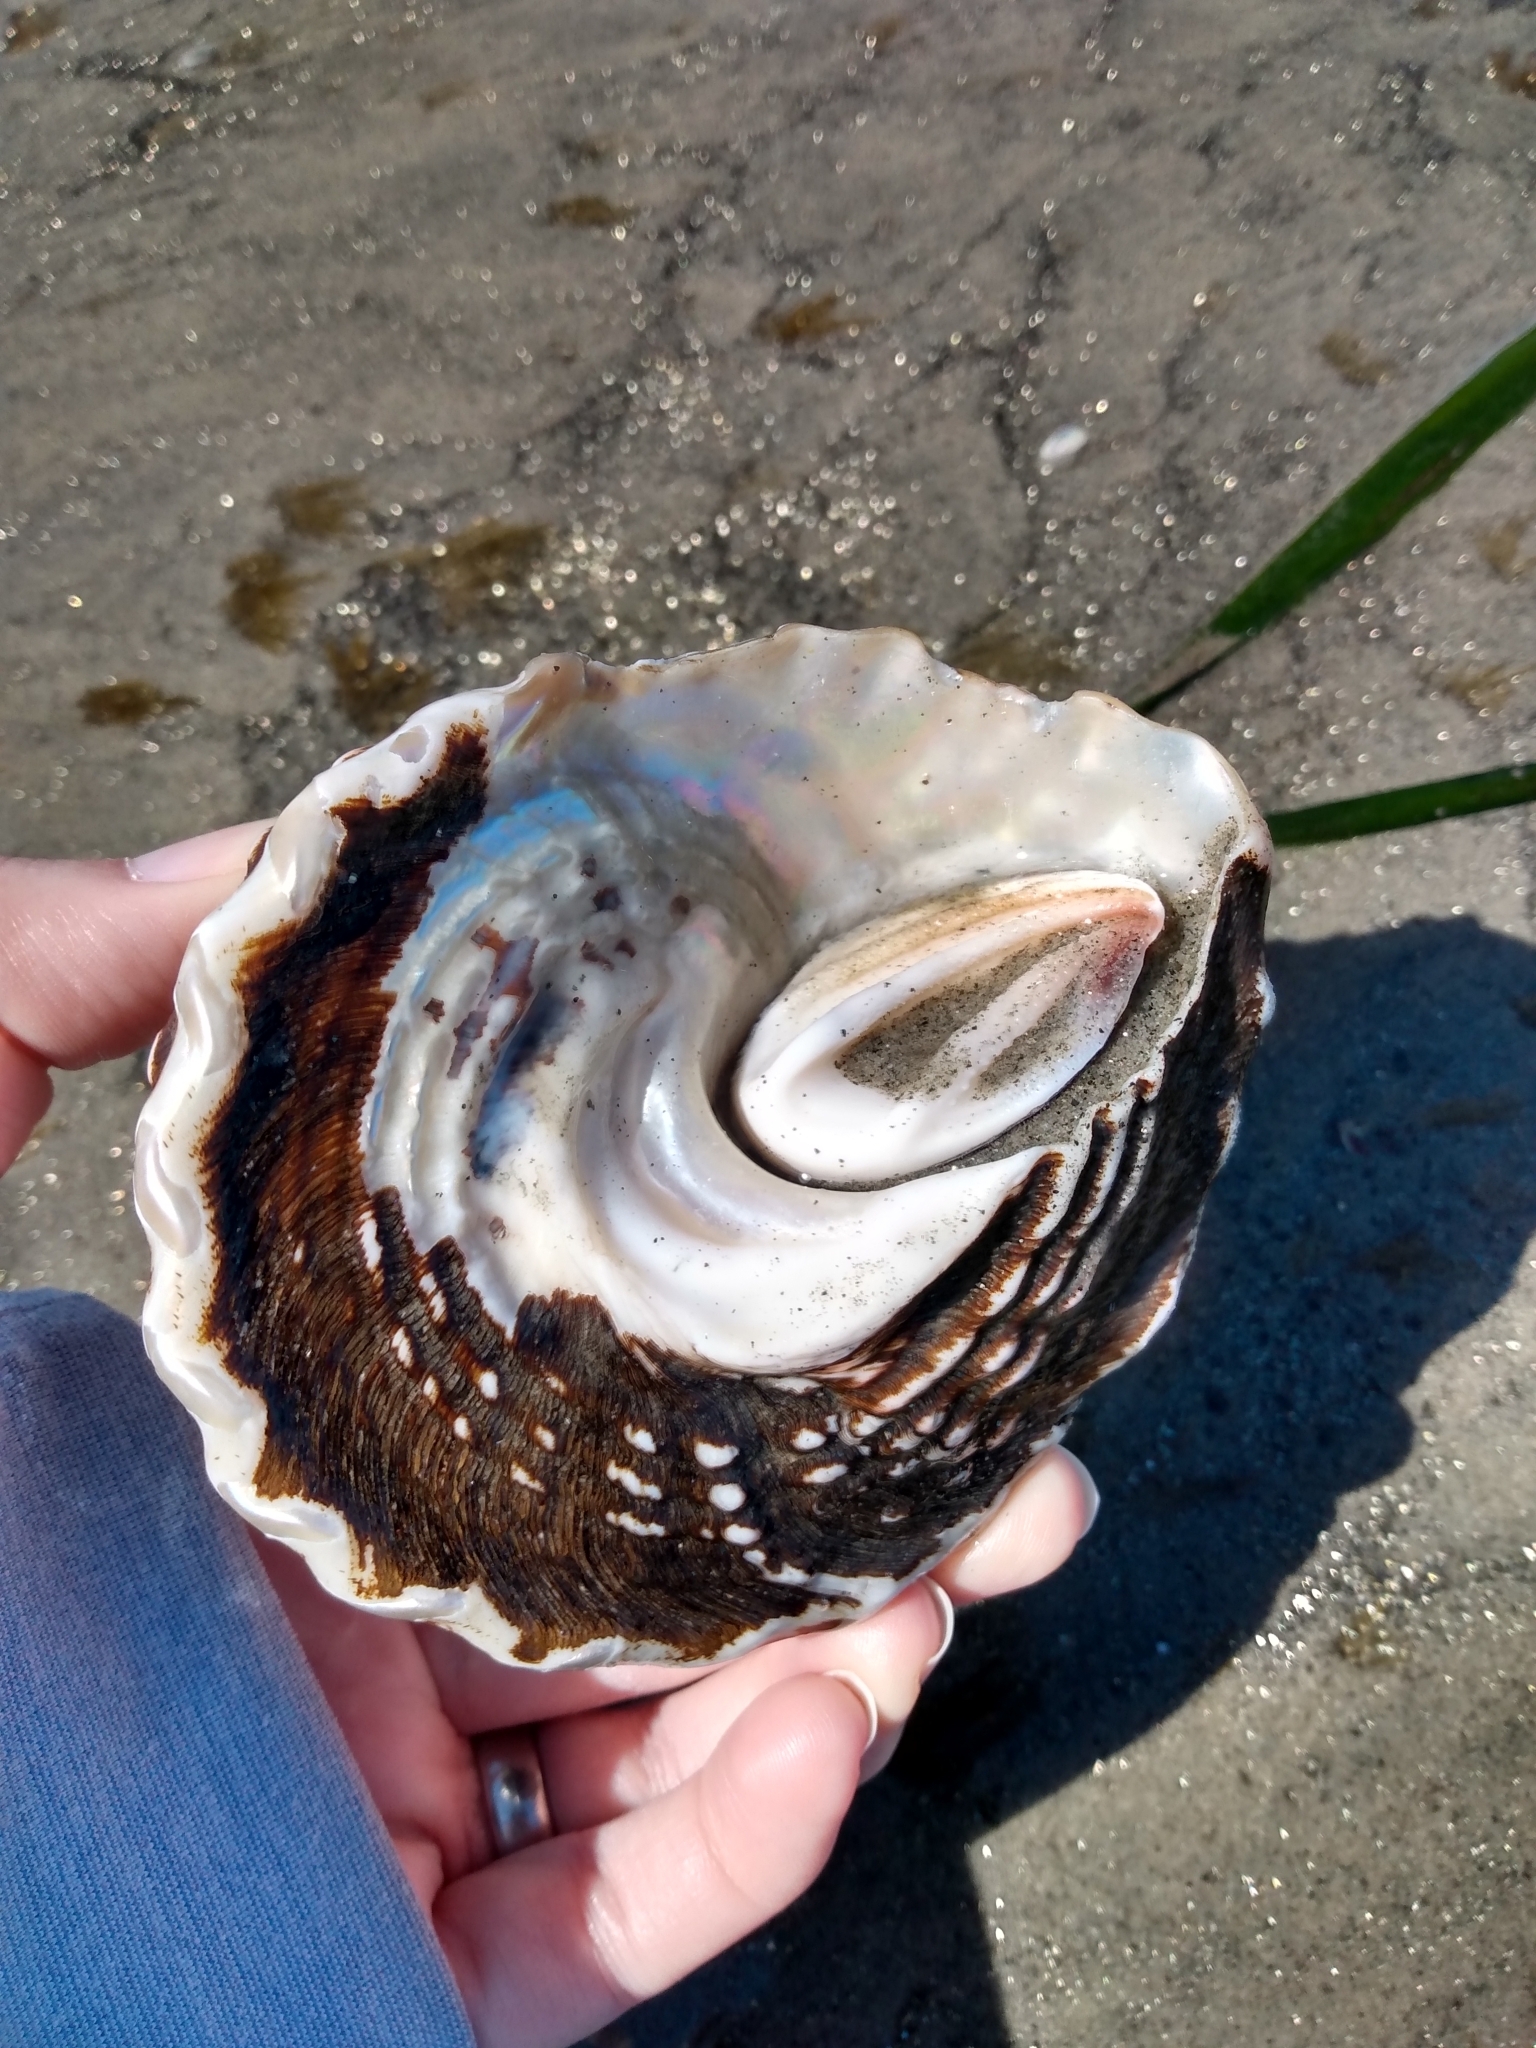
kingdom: Animalia
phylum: Mollusca
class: Gastropoda
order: Trochida
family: Turbinidae
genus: Megastraea
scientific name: Megastraea undosa
